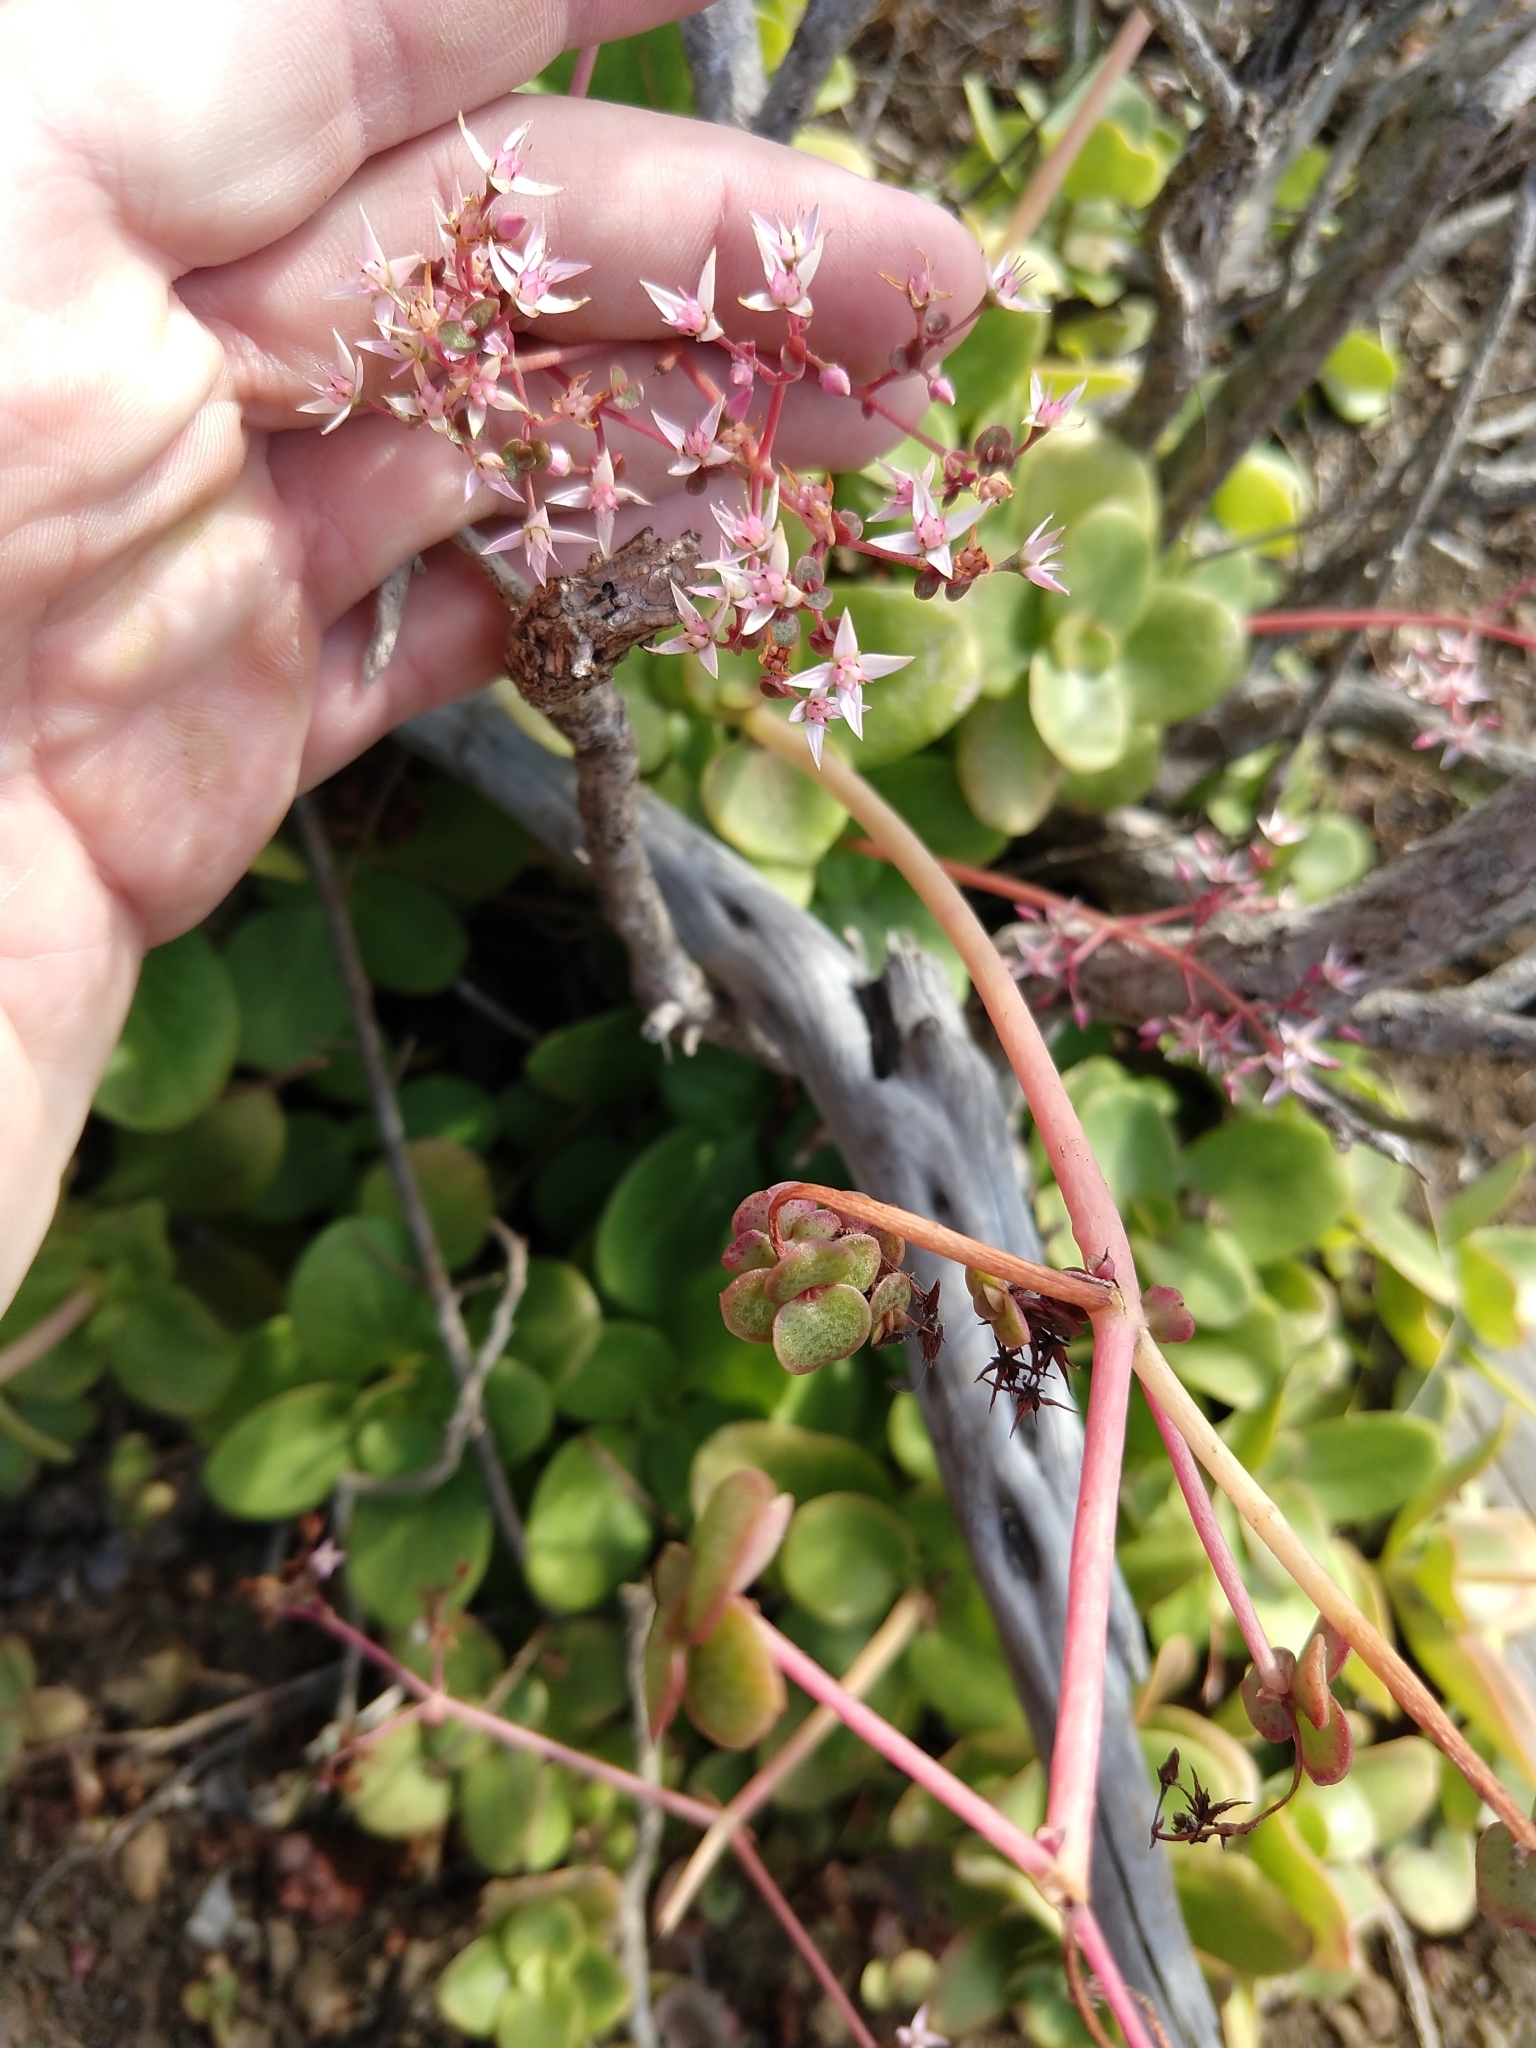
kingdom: Plantae
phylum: Tracheophyta
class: Magnoliopsida
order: Saxifragales
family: Crassulaceae
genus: Crassula
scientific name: Crassula multicava
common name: Cape province pygmyweed
